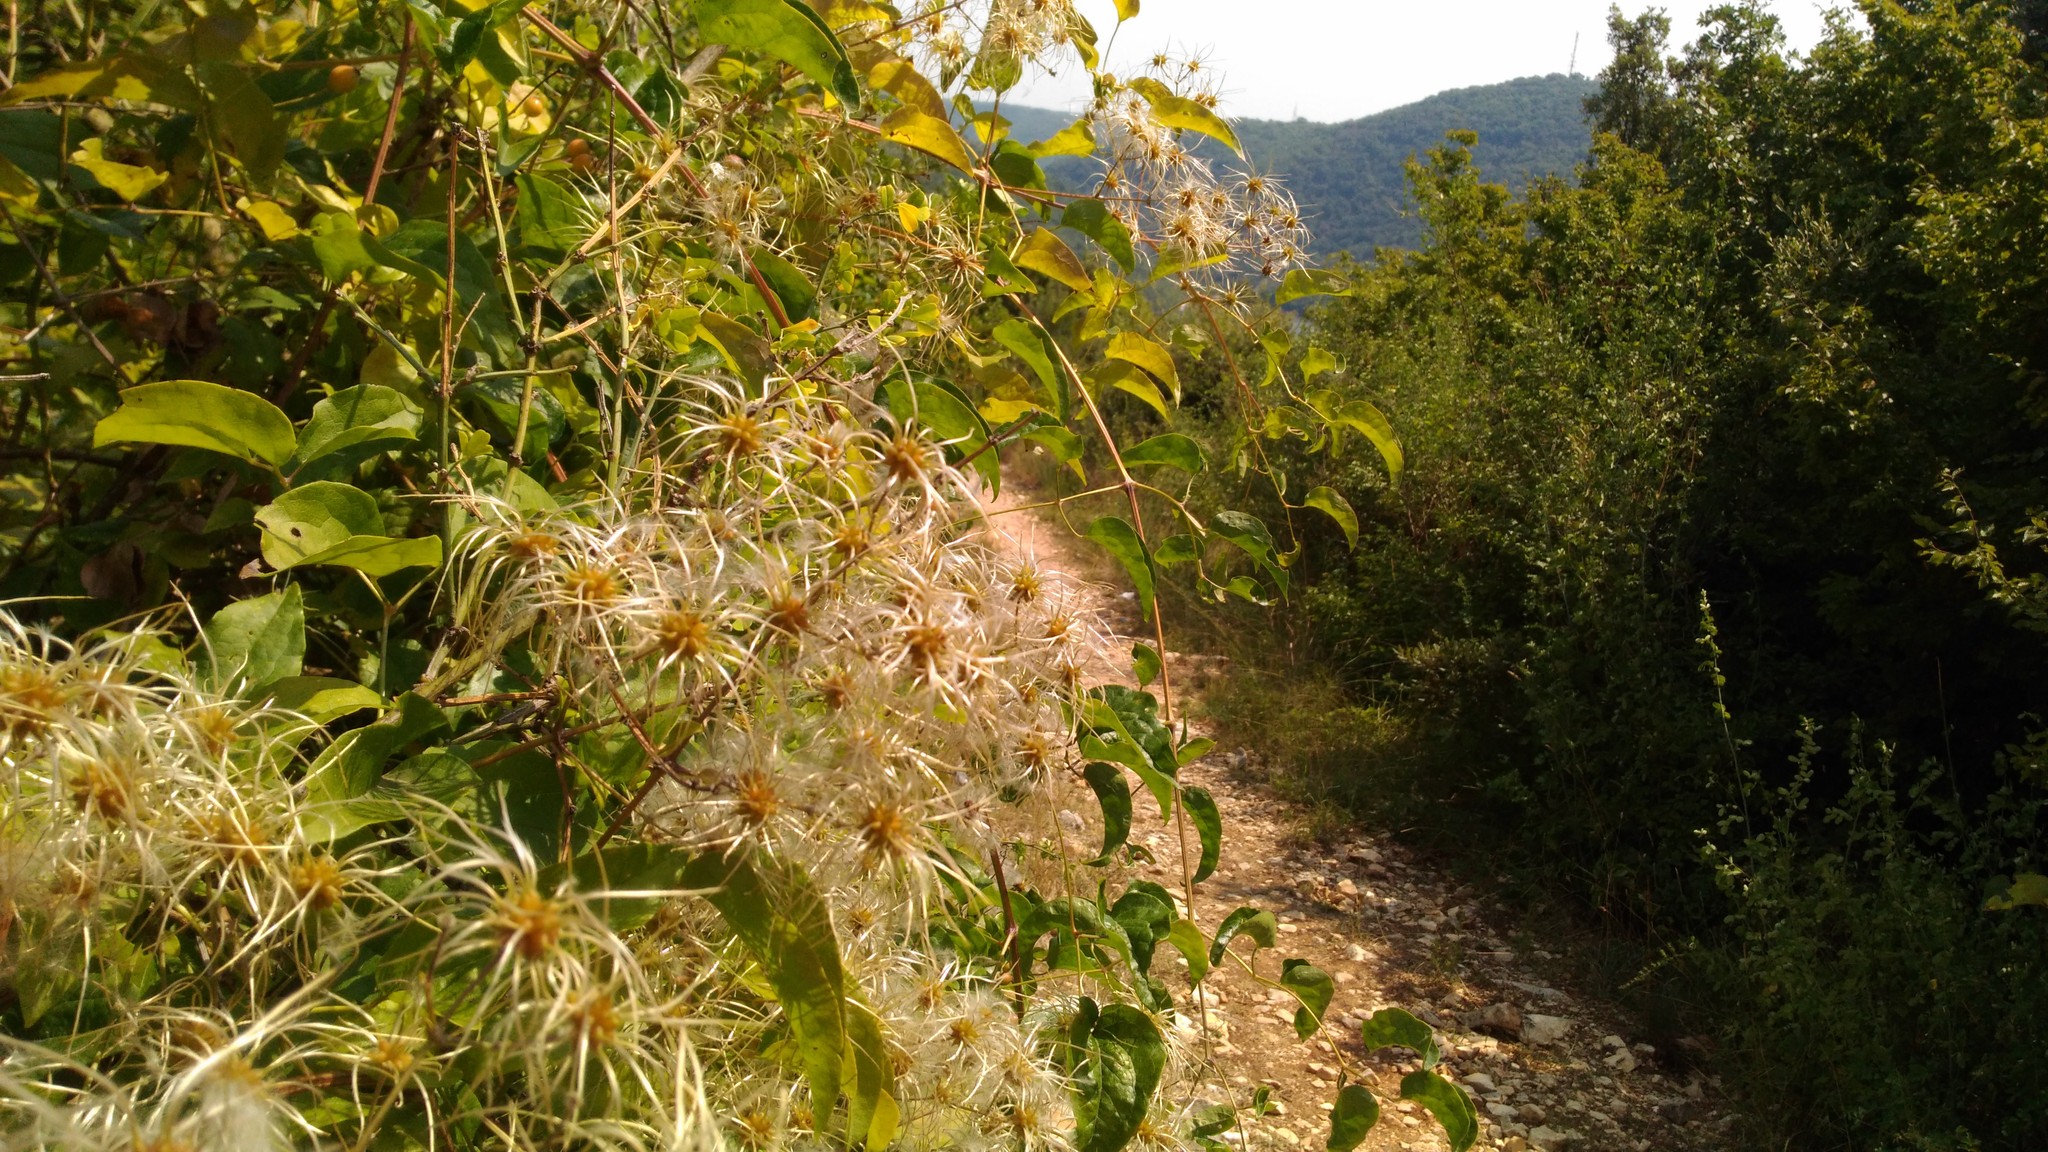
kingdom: Plantae
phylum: Tracheophyta
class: Magnoliopsida
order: Ranunculales
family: Ranunculaceae
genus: Clematis
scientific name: Clematis vitalba
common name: Evergreen clematis
